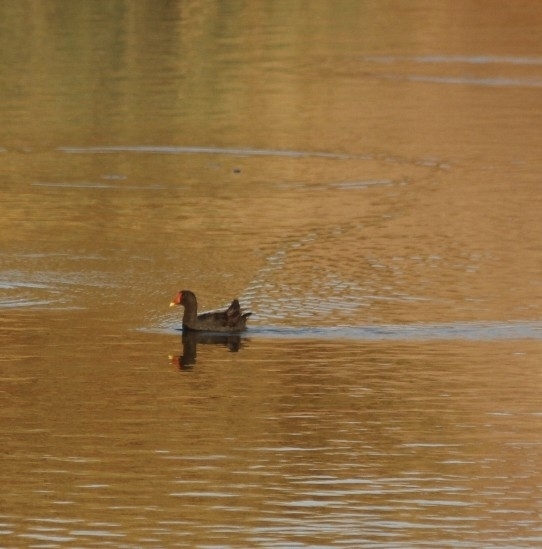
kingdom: Animalia
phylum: Chordata
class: Aves
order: Gruiformes
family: Rallidae
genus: Gallinula
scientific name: Gallinula chloropus
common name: Common moorhen
